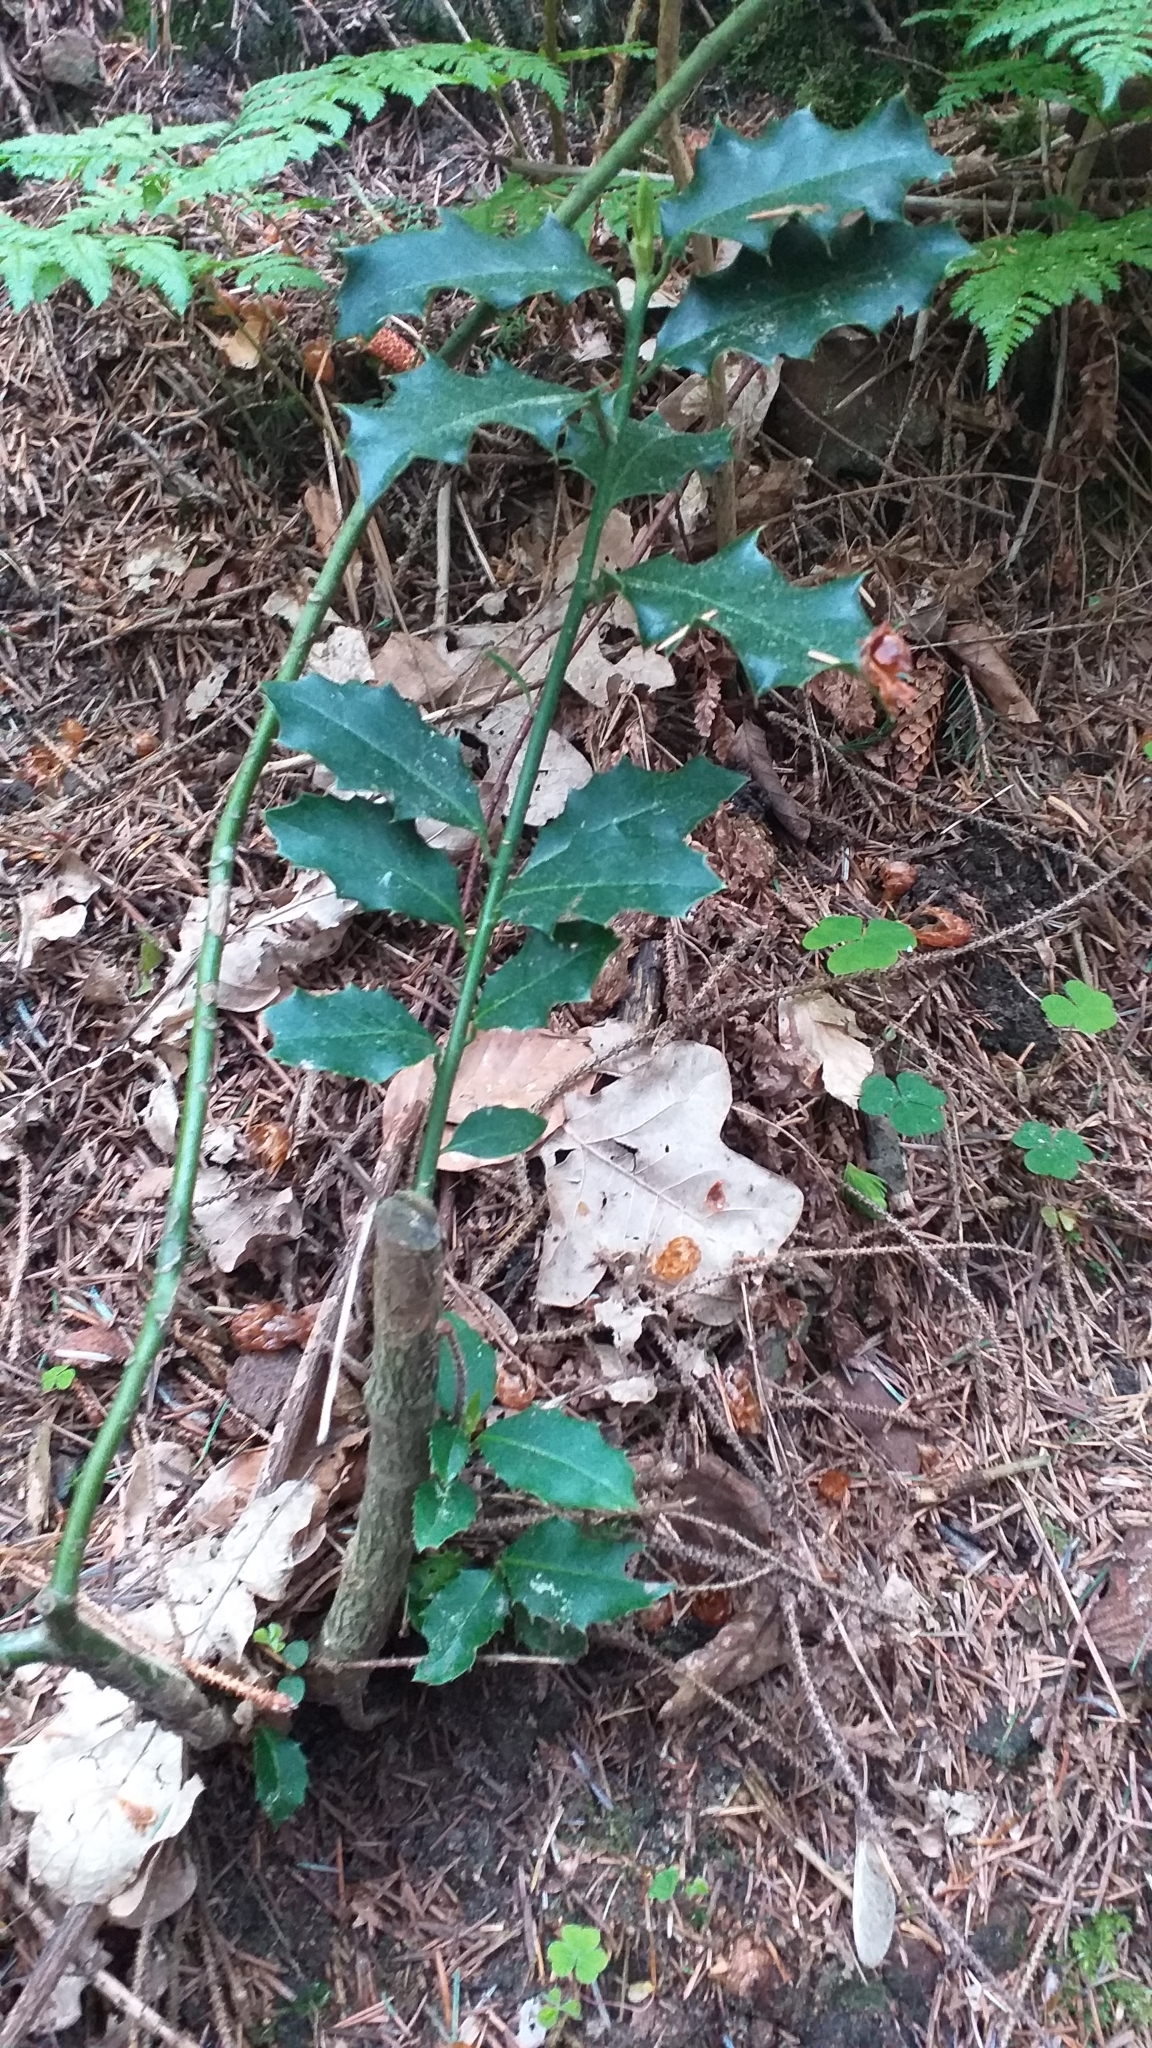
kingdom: Plantae
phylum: Tracheophyta
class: Magnoliopsida
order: Aquifoliales
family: Aquifoliaceae
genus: Ilex
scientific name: Ilex aquifolium
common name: English holly
